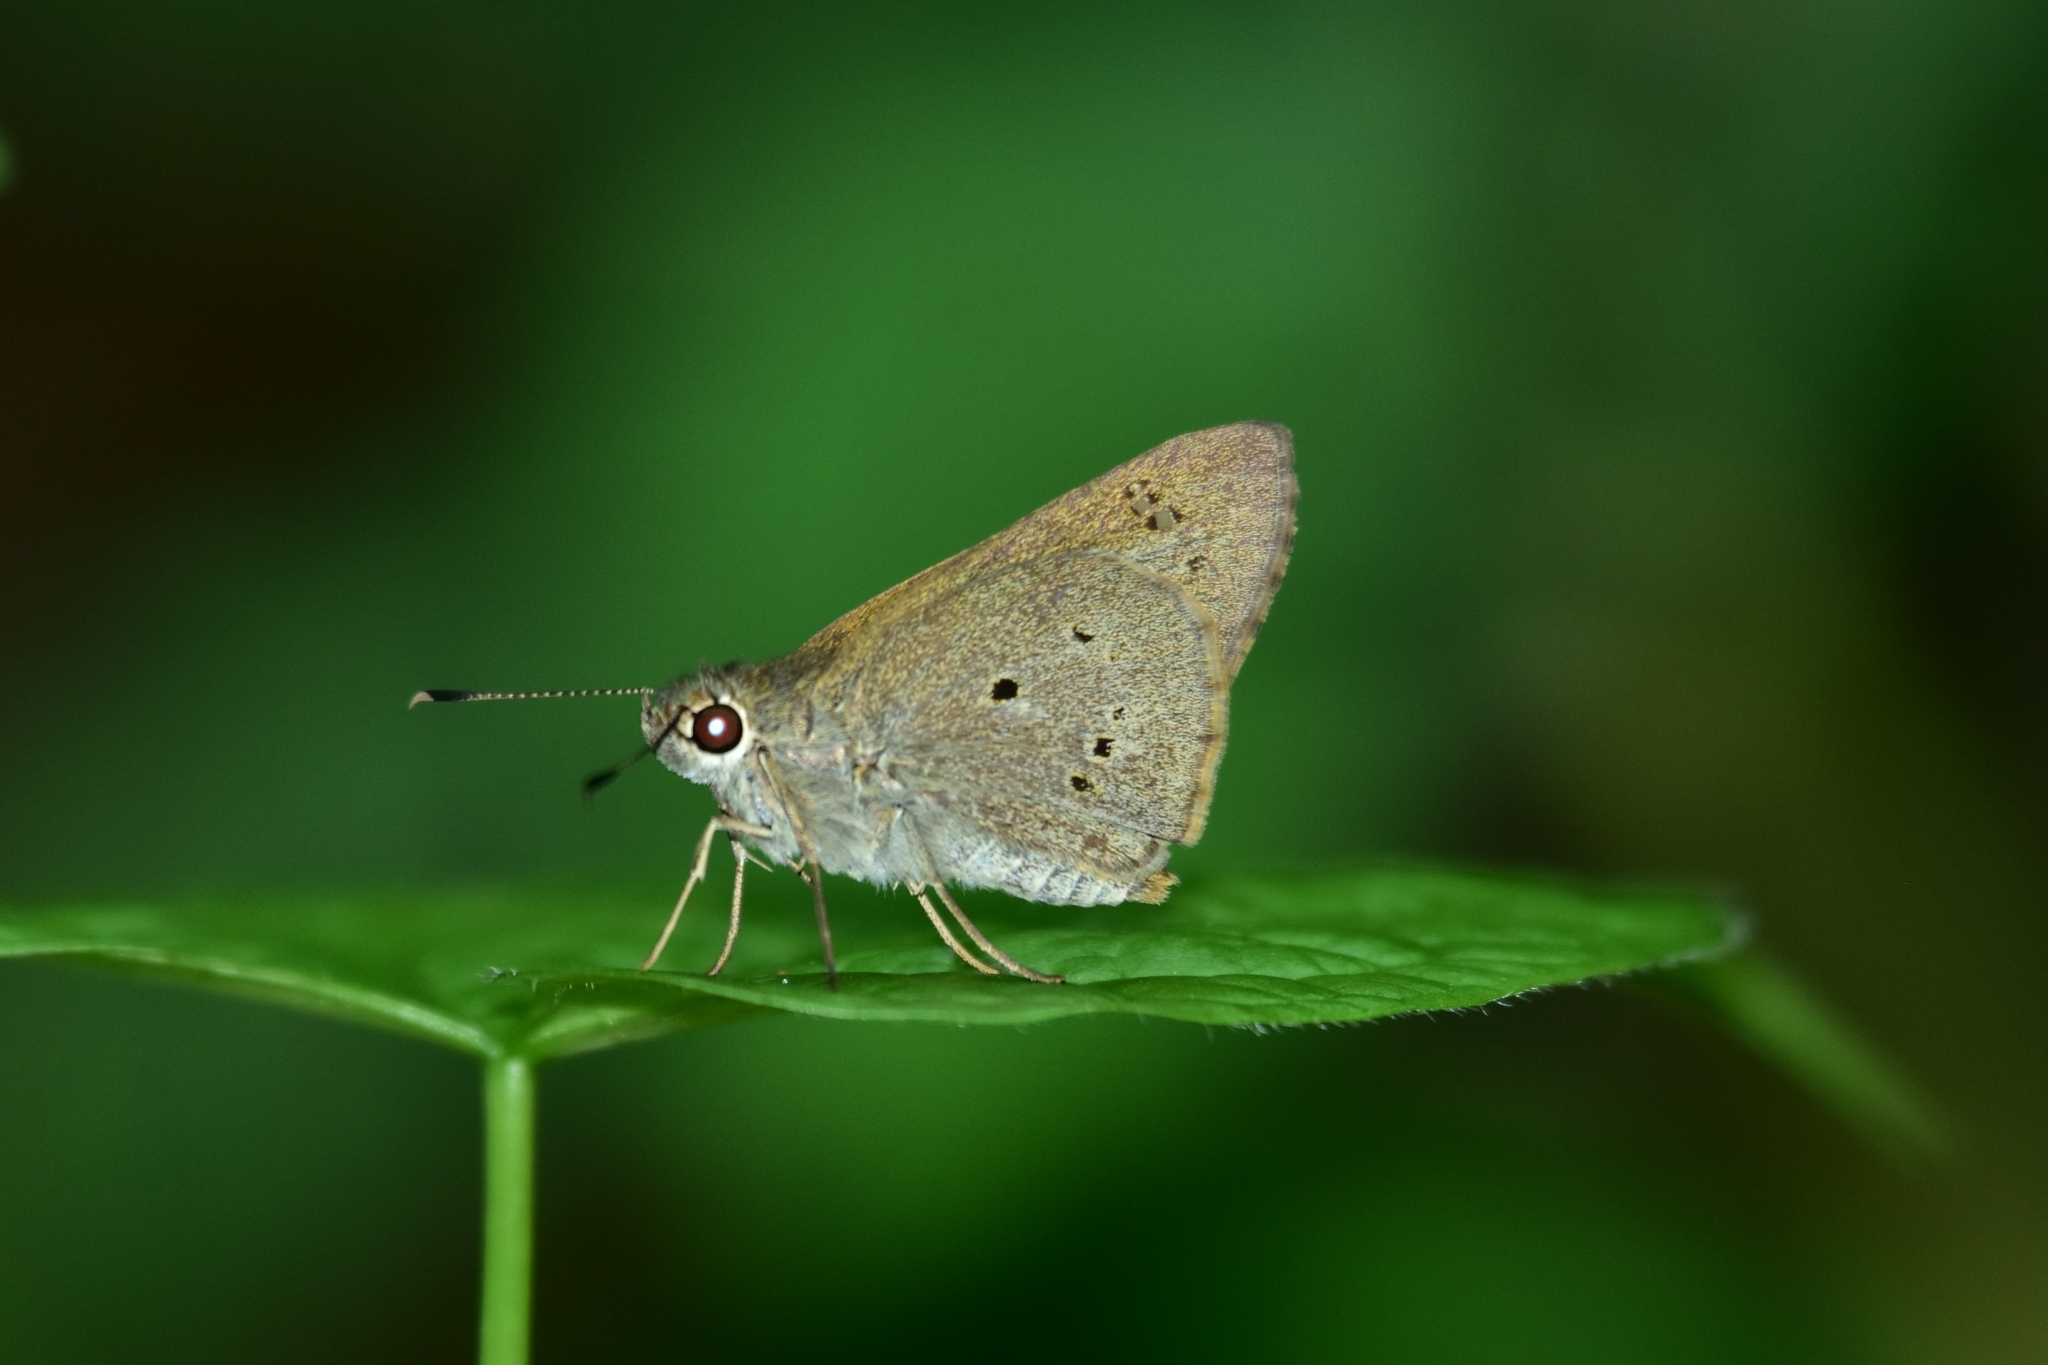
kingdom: Animalia
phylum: Arthropoda
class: Insecta
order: Lepidoptera
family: Hesperiidae
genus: Suastus
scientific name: Suastus gremius
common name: Indian palm bob
